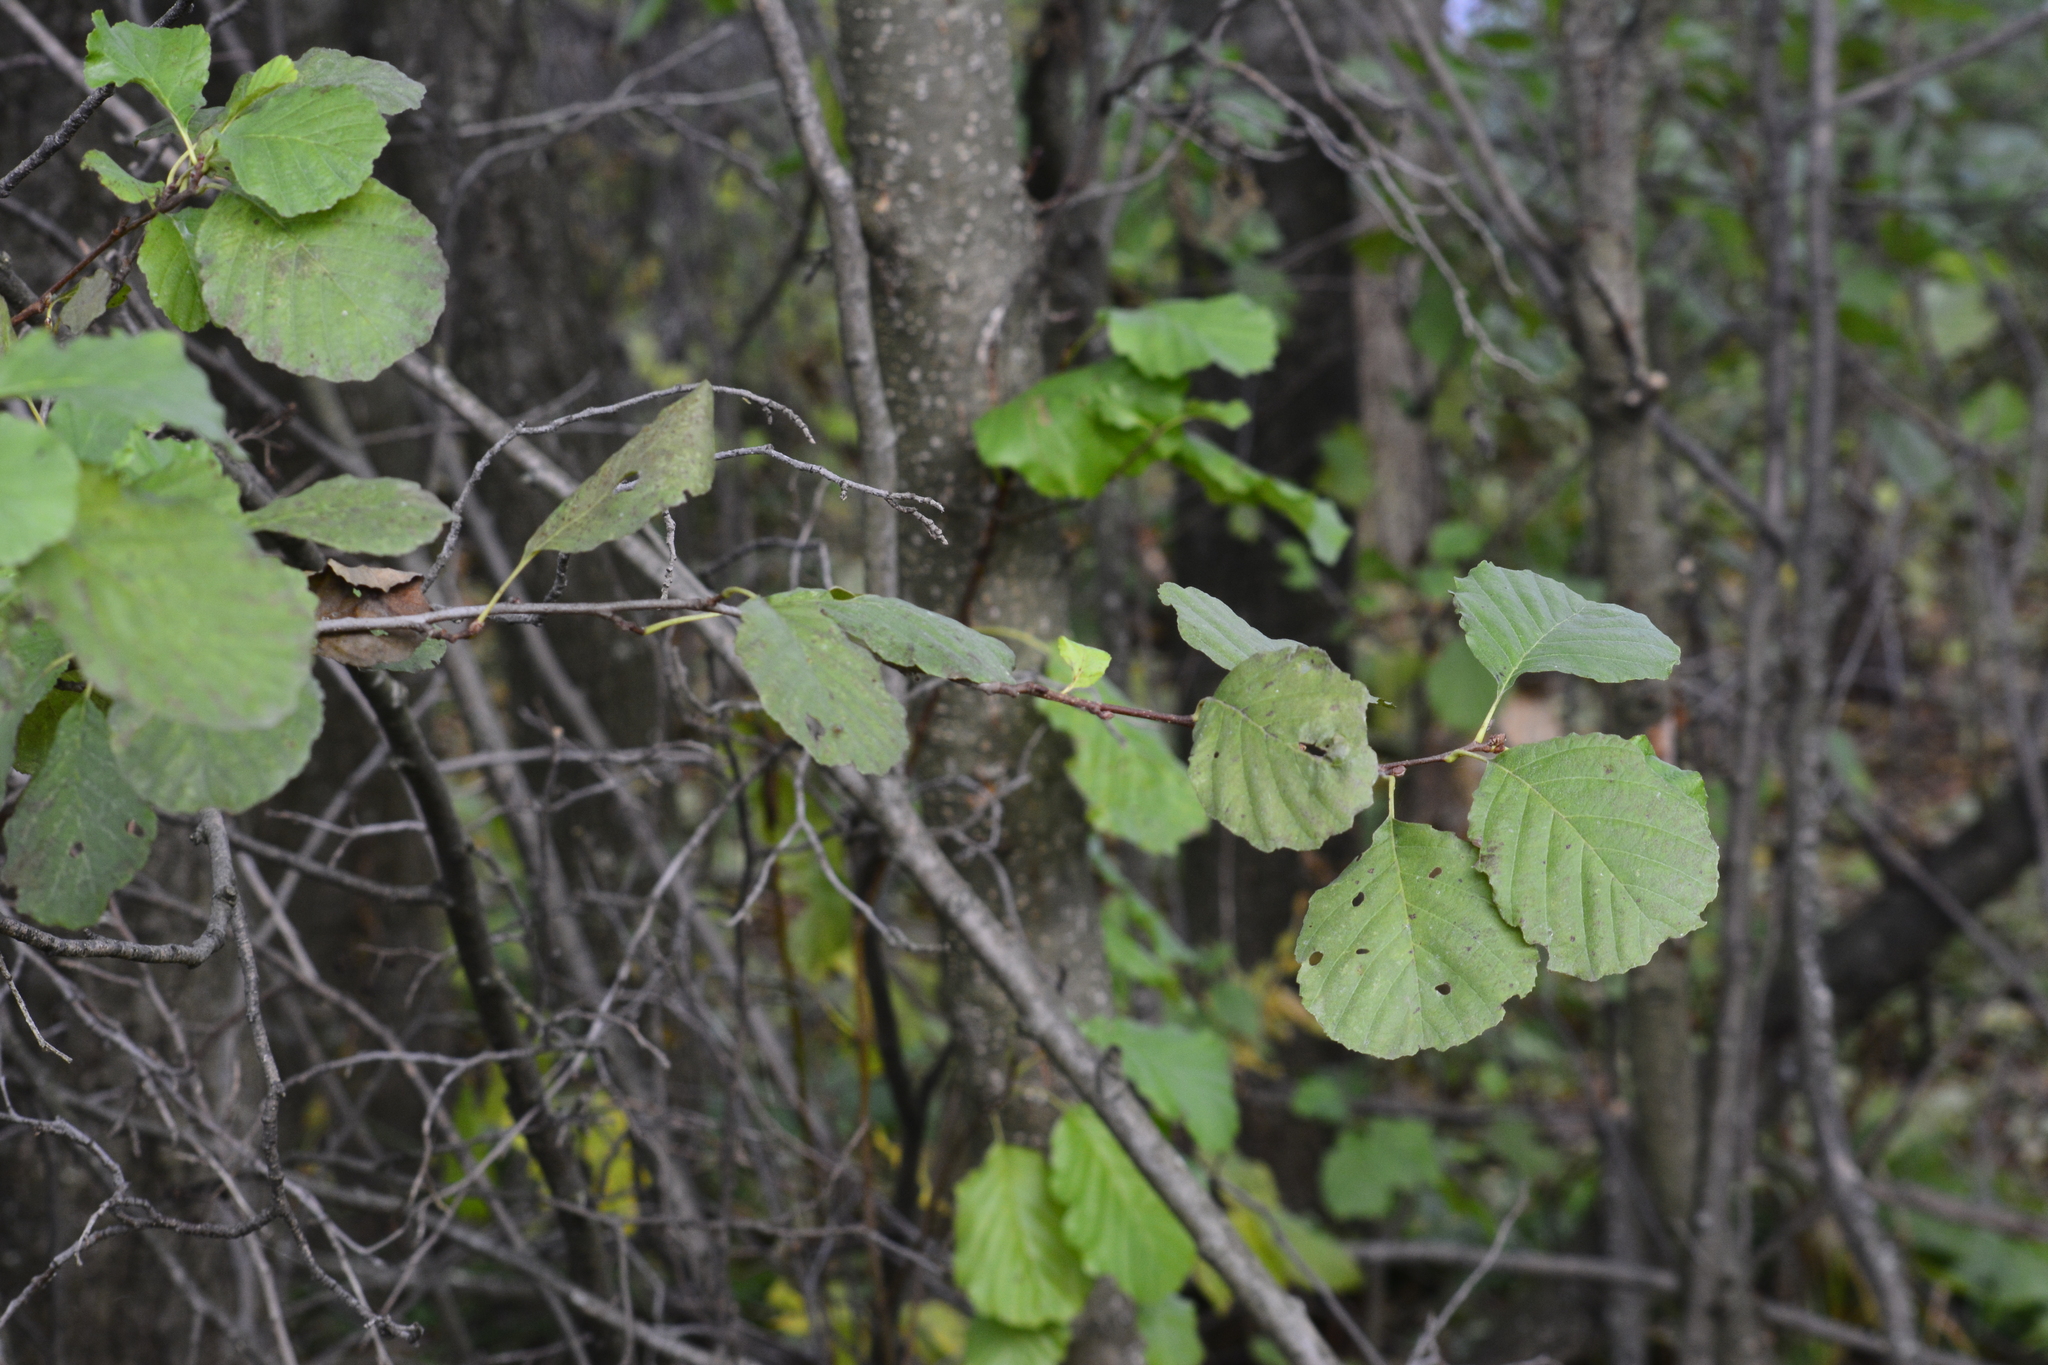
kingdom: Plantae
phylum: Tracheophyta
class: Magnoliopsida
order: Fagales
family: Betulaceae
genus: Alnus
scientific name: Alnus glutinosa
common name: Black alder
